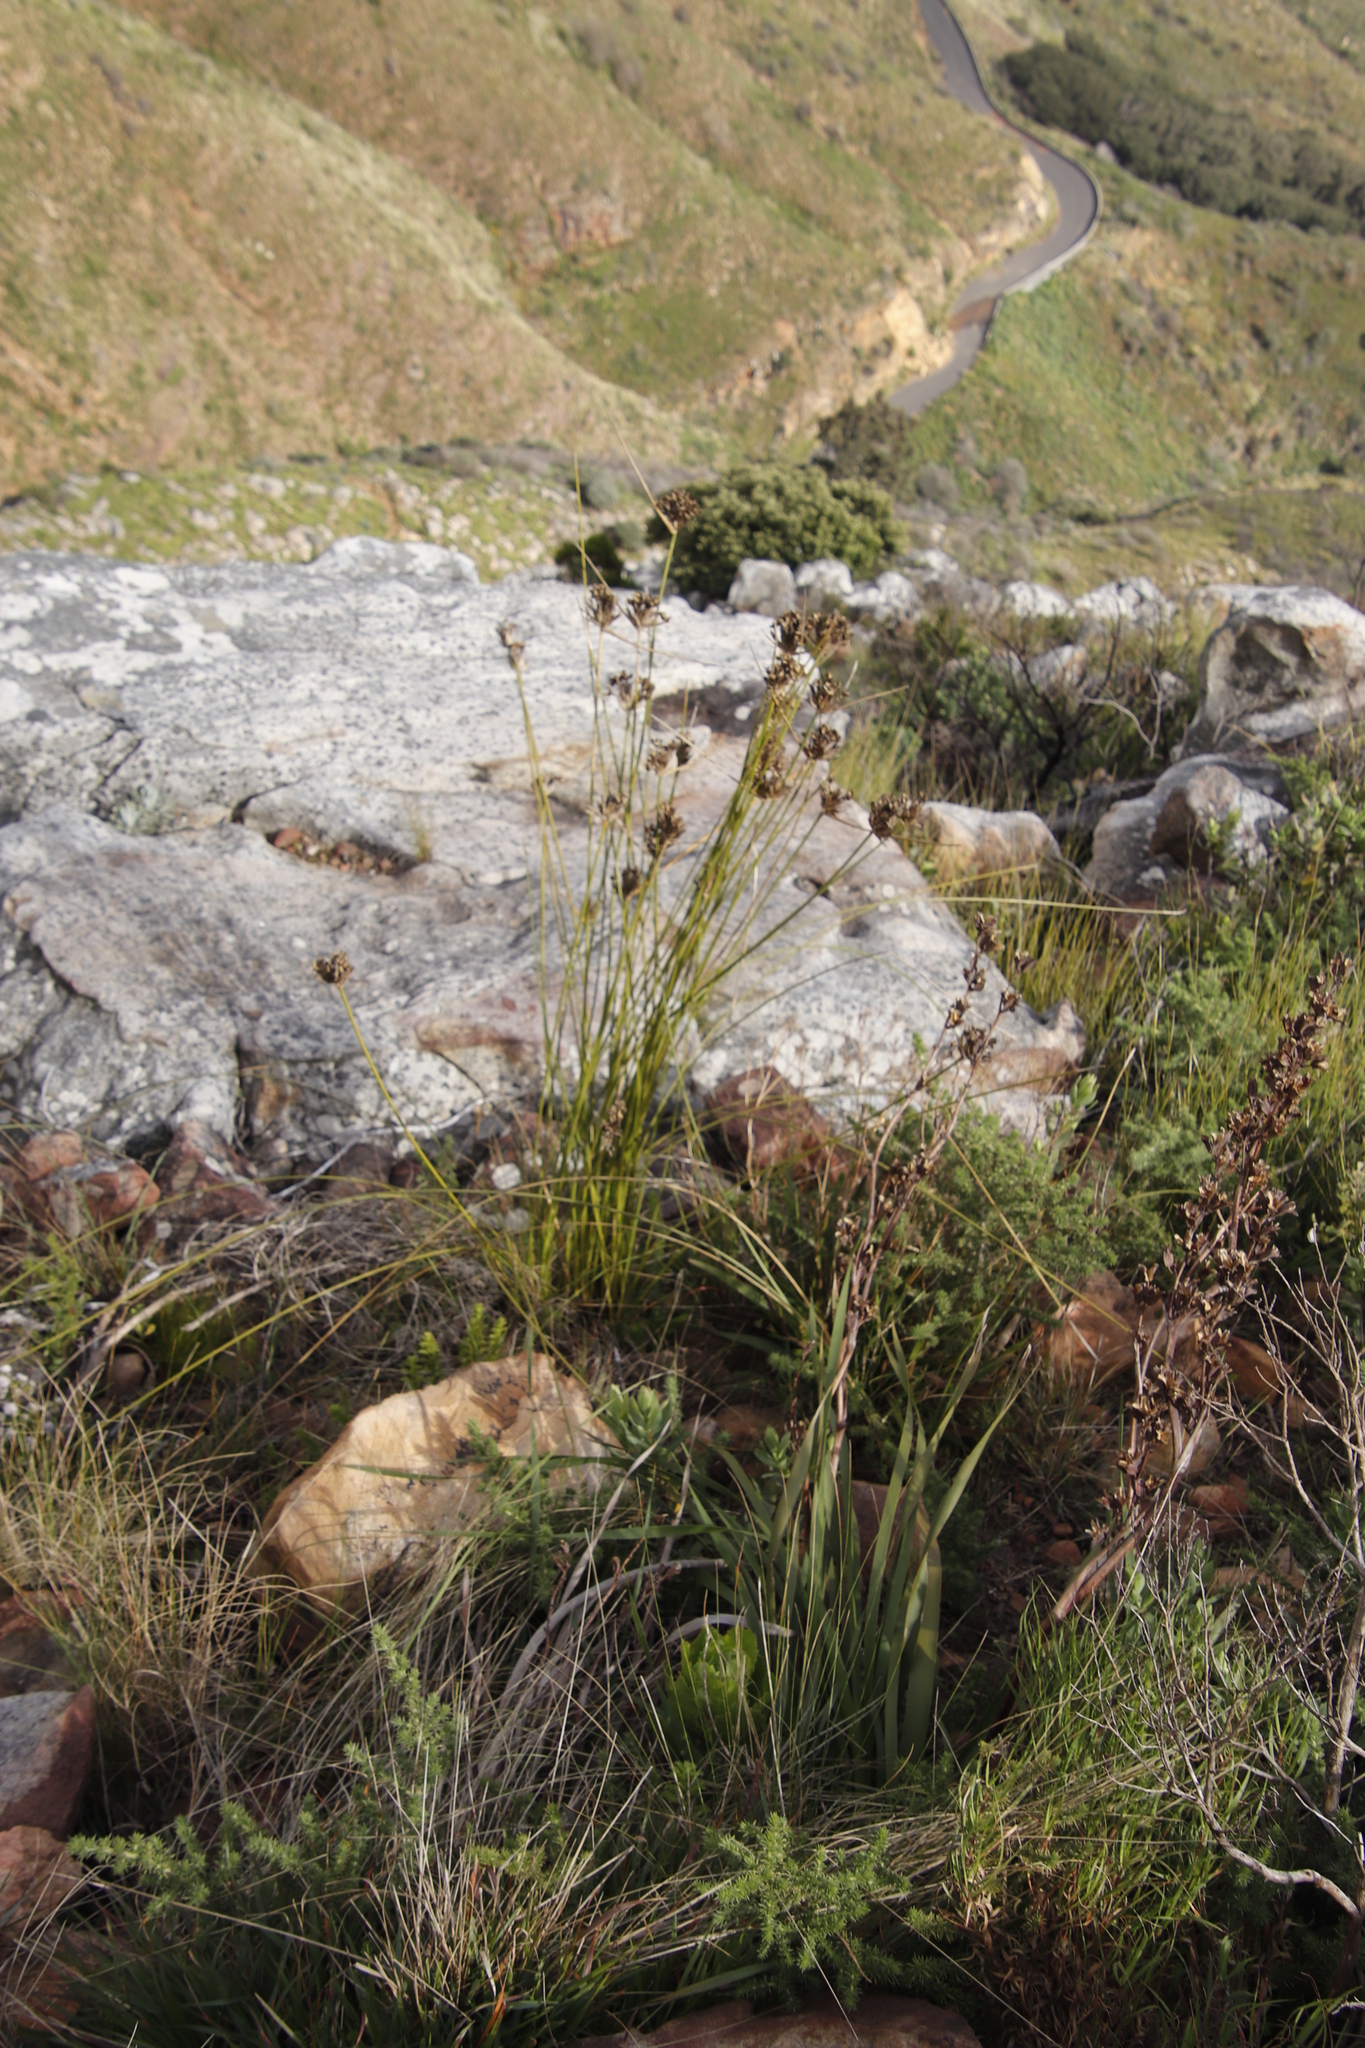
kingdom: Plantae
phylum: Tracheophyta
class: Liliopsida
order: Asparagales
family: Iridaceae
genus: Bobartia
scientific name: Bobartia indica
